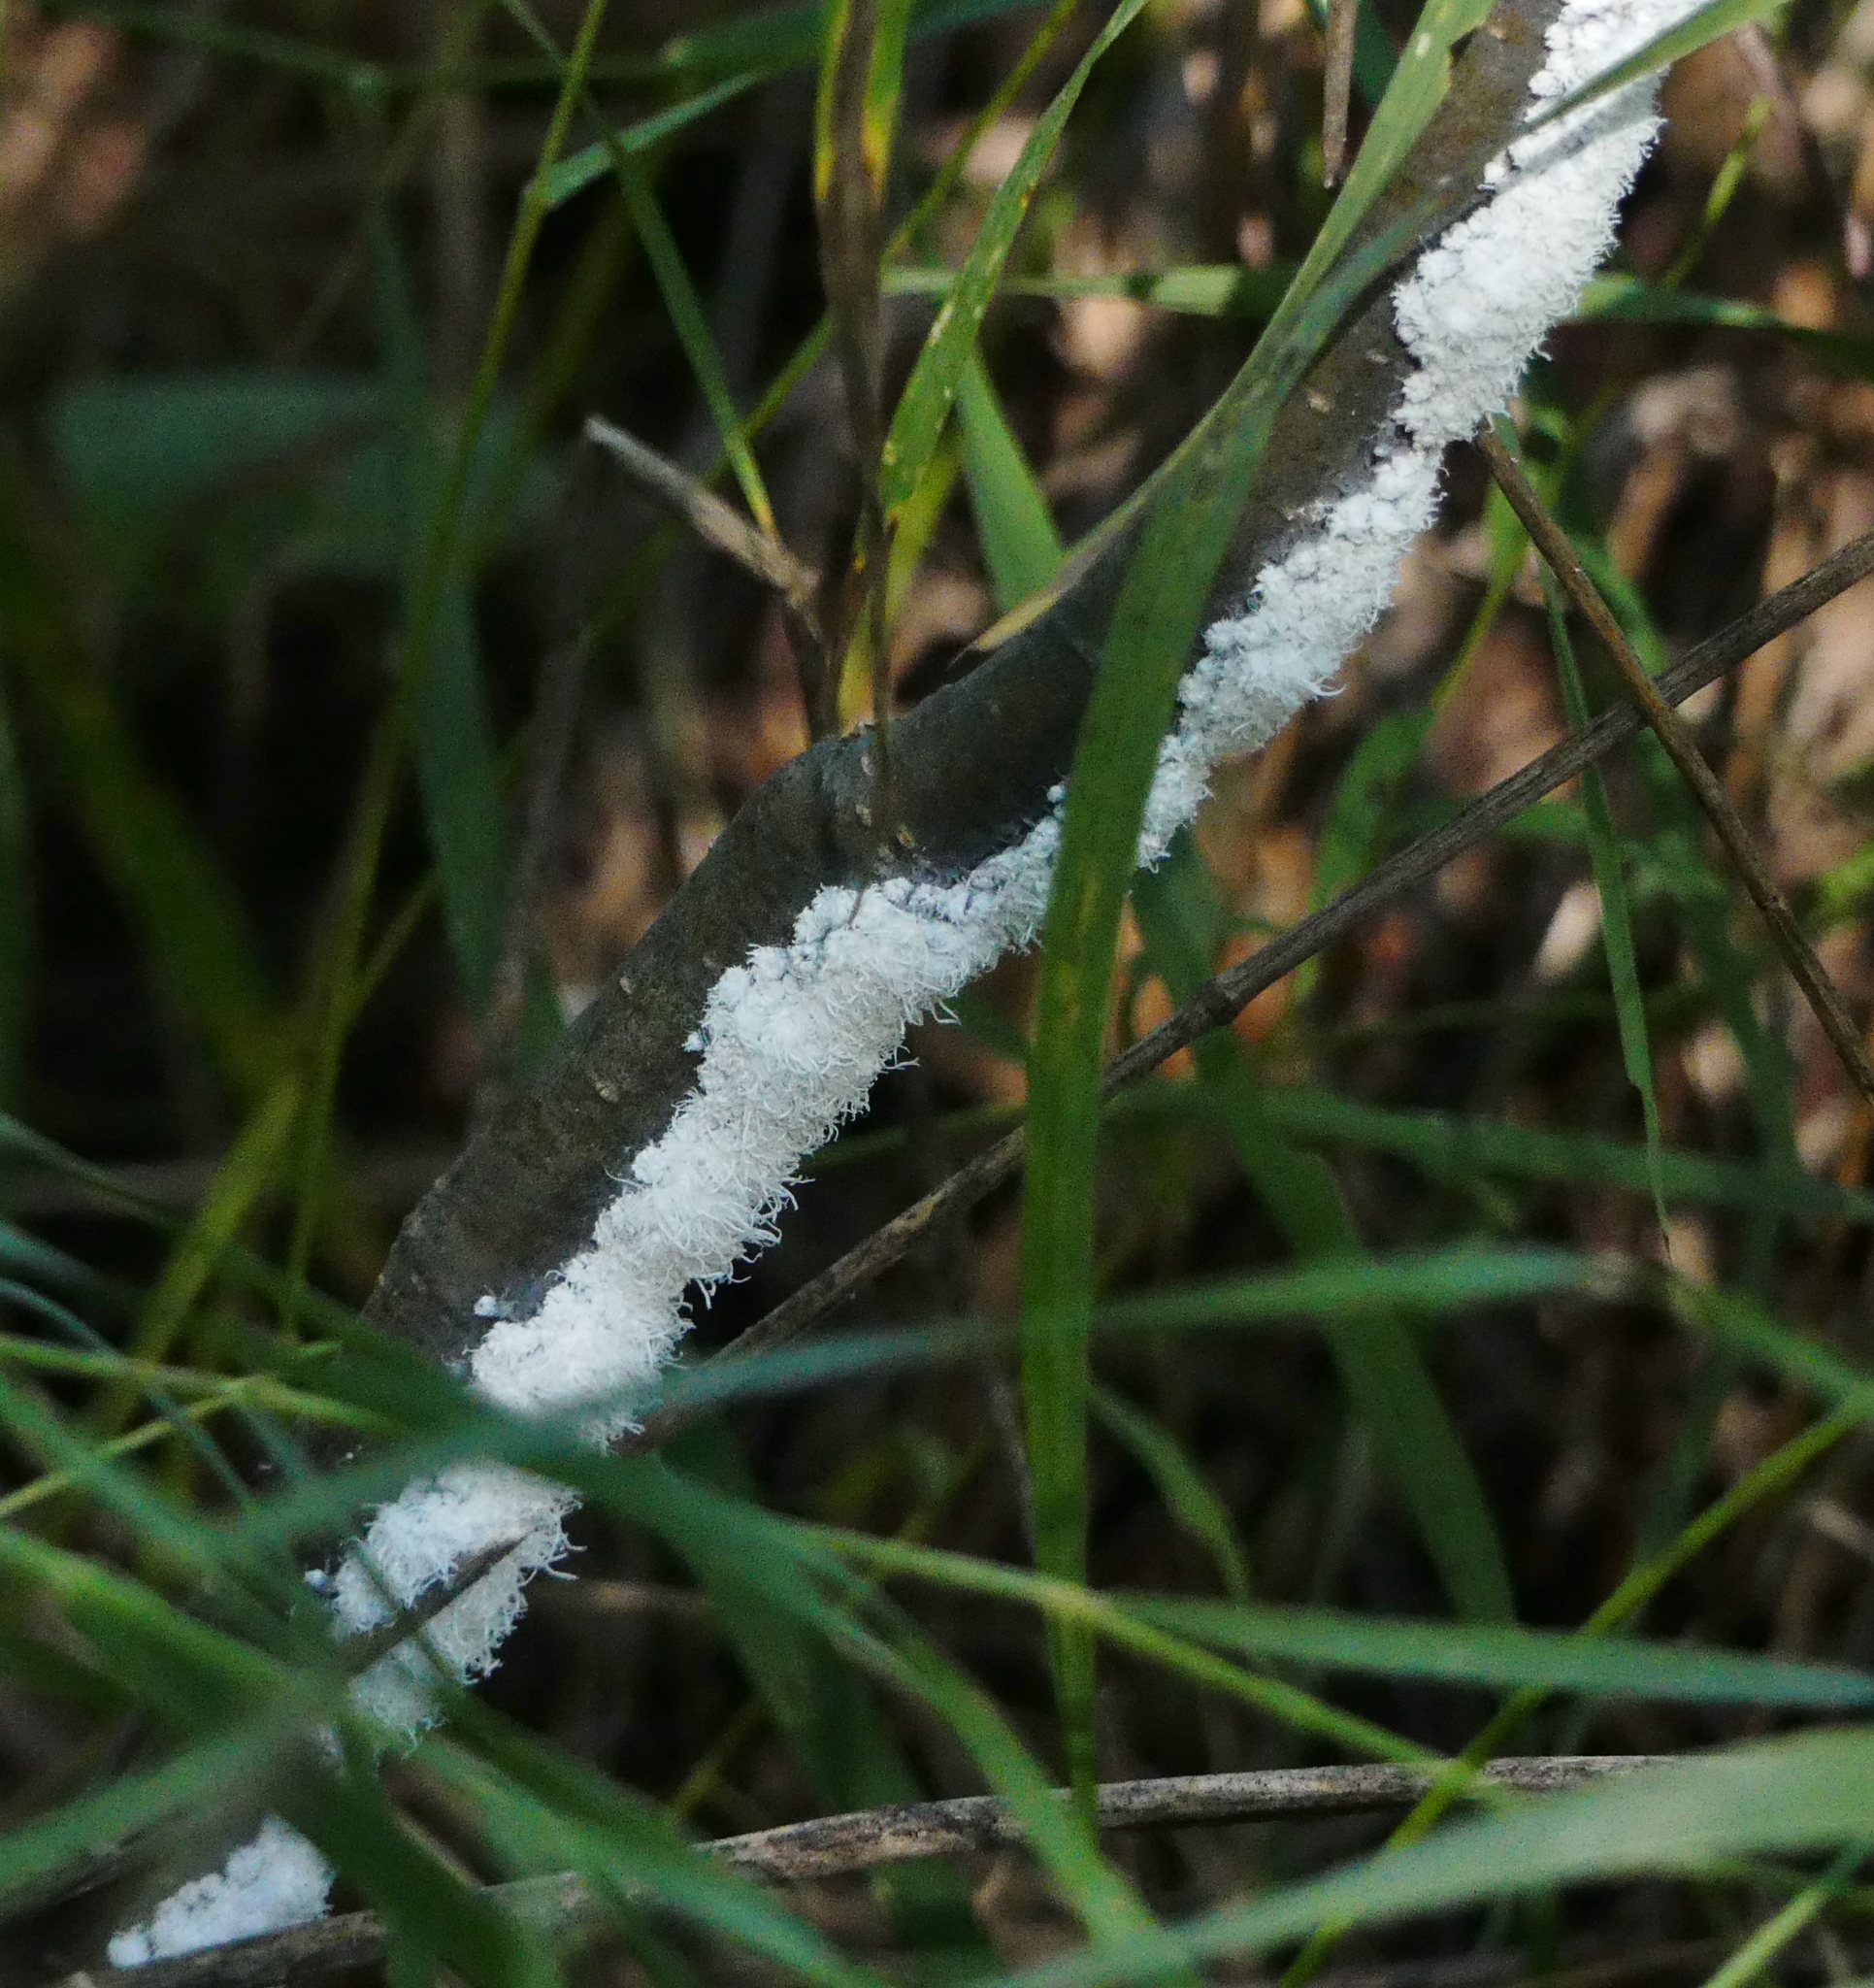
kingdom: Animalia
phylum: Arthropoda
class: Insecta
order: Hemiptera
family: Aphididae
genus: Prociphilus
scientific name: Prociphilus tessellatus
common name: Woolly alder aphid
